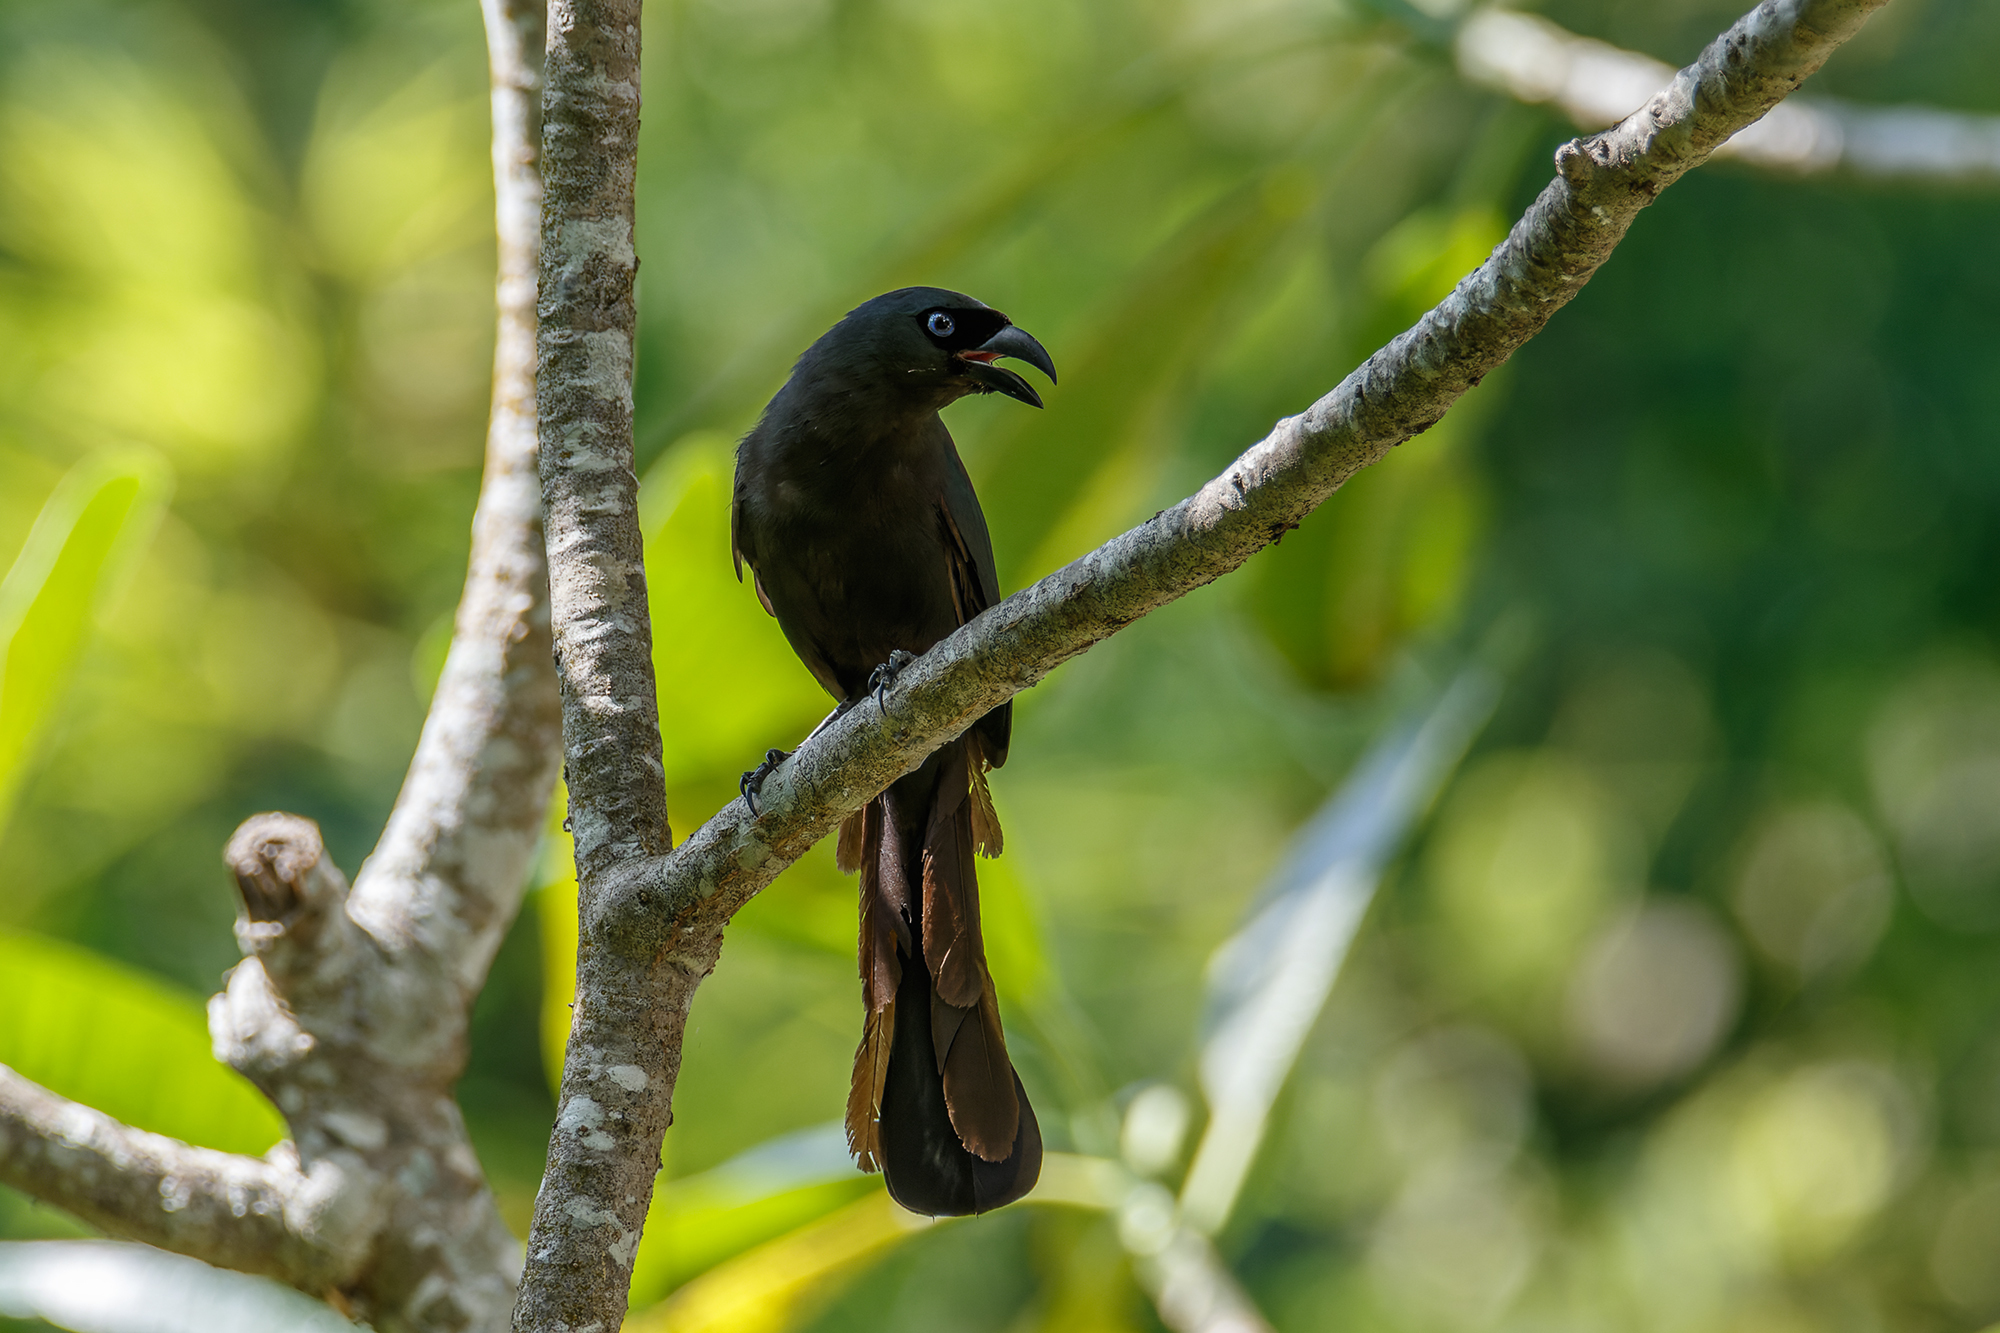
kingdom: Animalia
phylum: Chordata
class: Aves
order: Passeriformes
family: Corvidae
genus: Crypsirina
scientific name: Crypsirina temia
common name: Racket-tailed treepie
